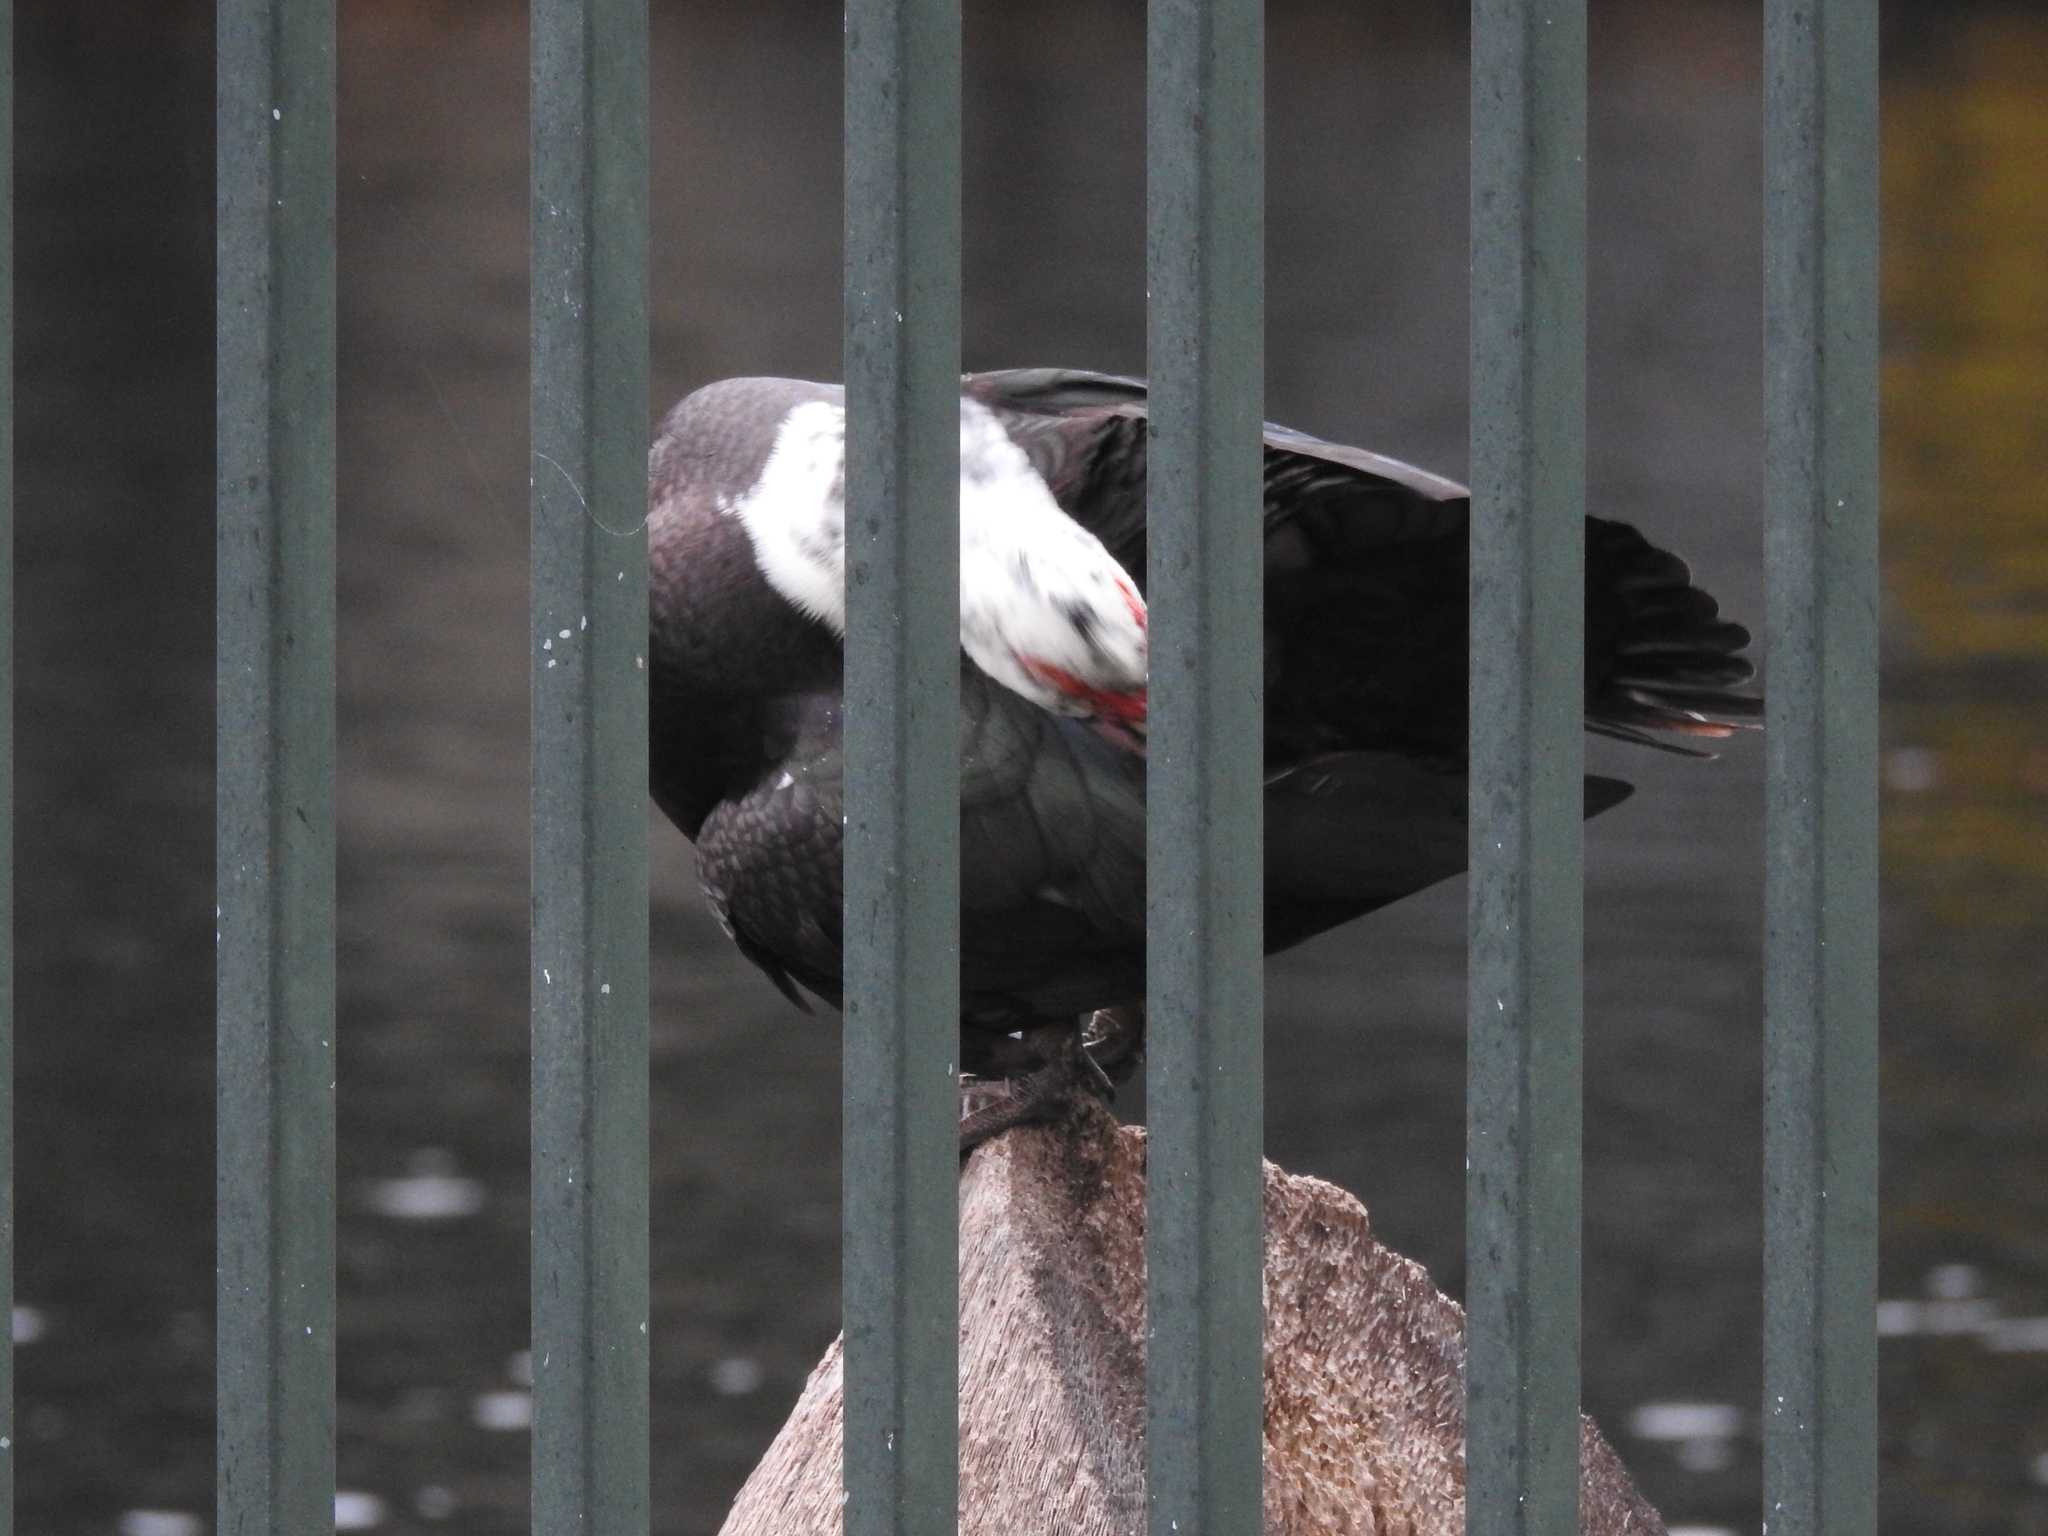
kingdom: Animalia
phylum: Chordata
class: Aves
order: Anseriformes
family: Anatidae
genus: Cairina
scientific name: Cairina moschata
